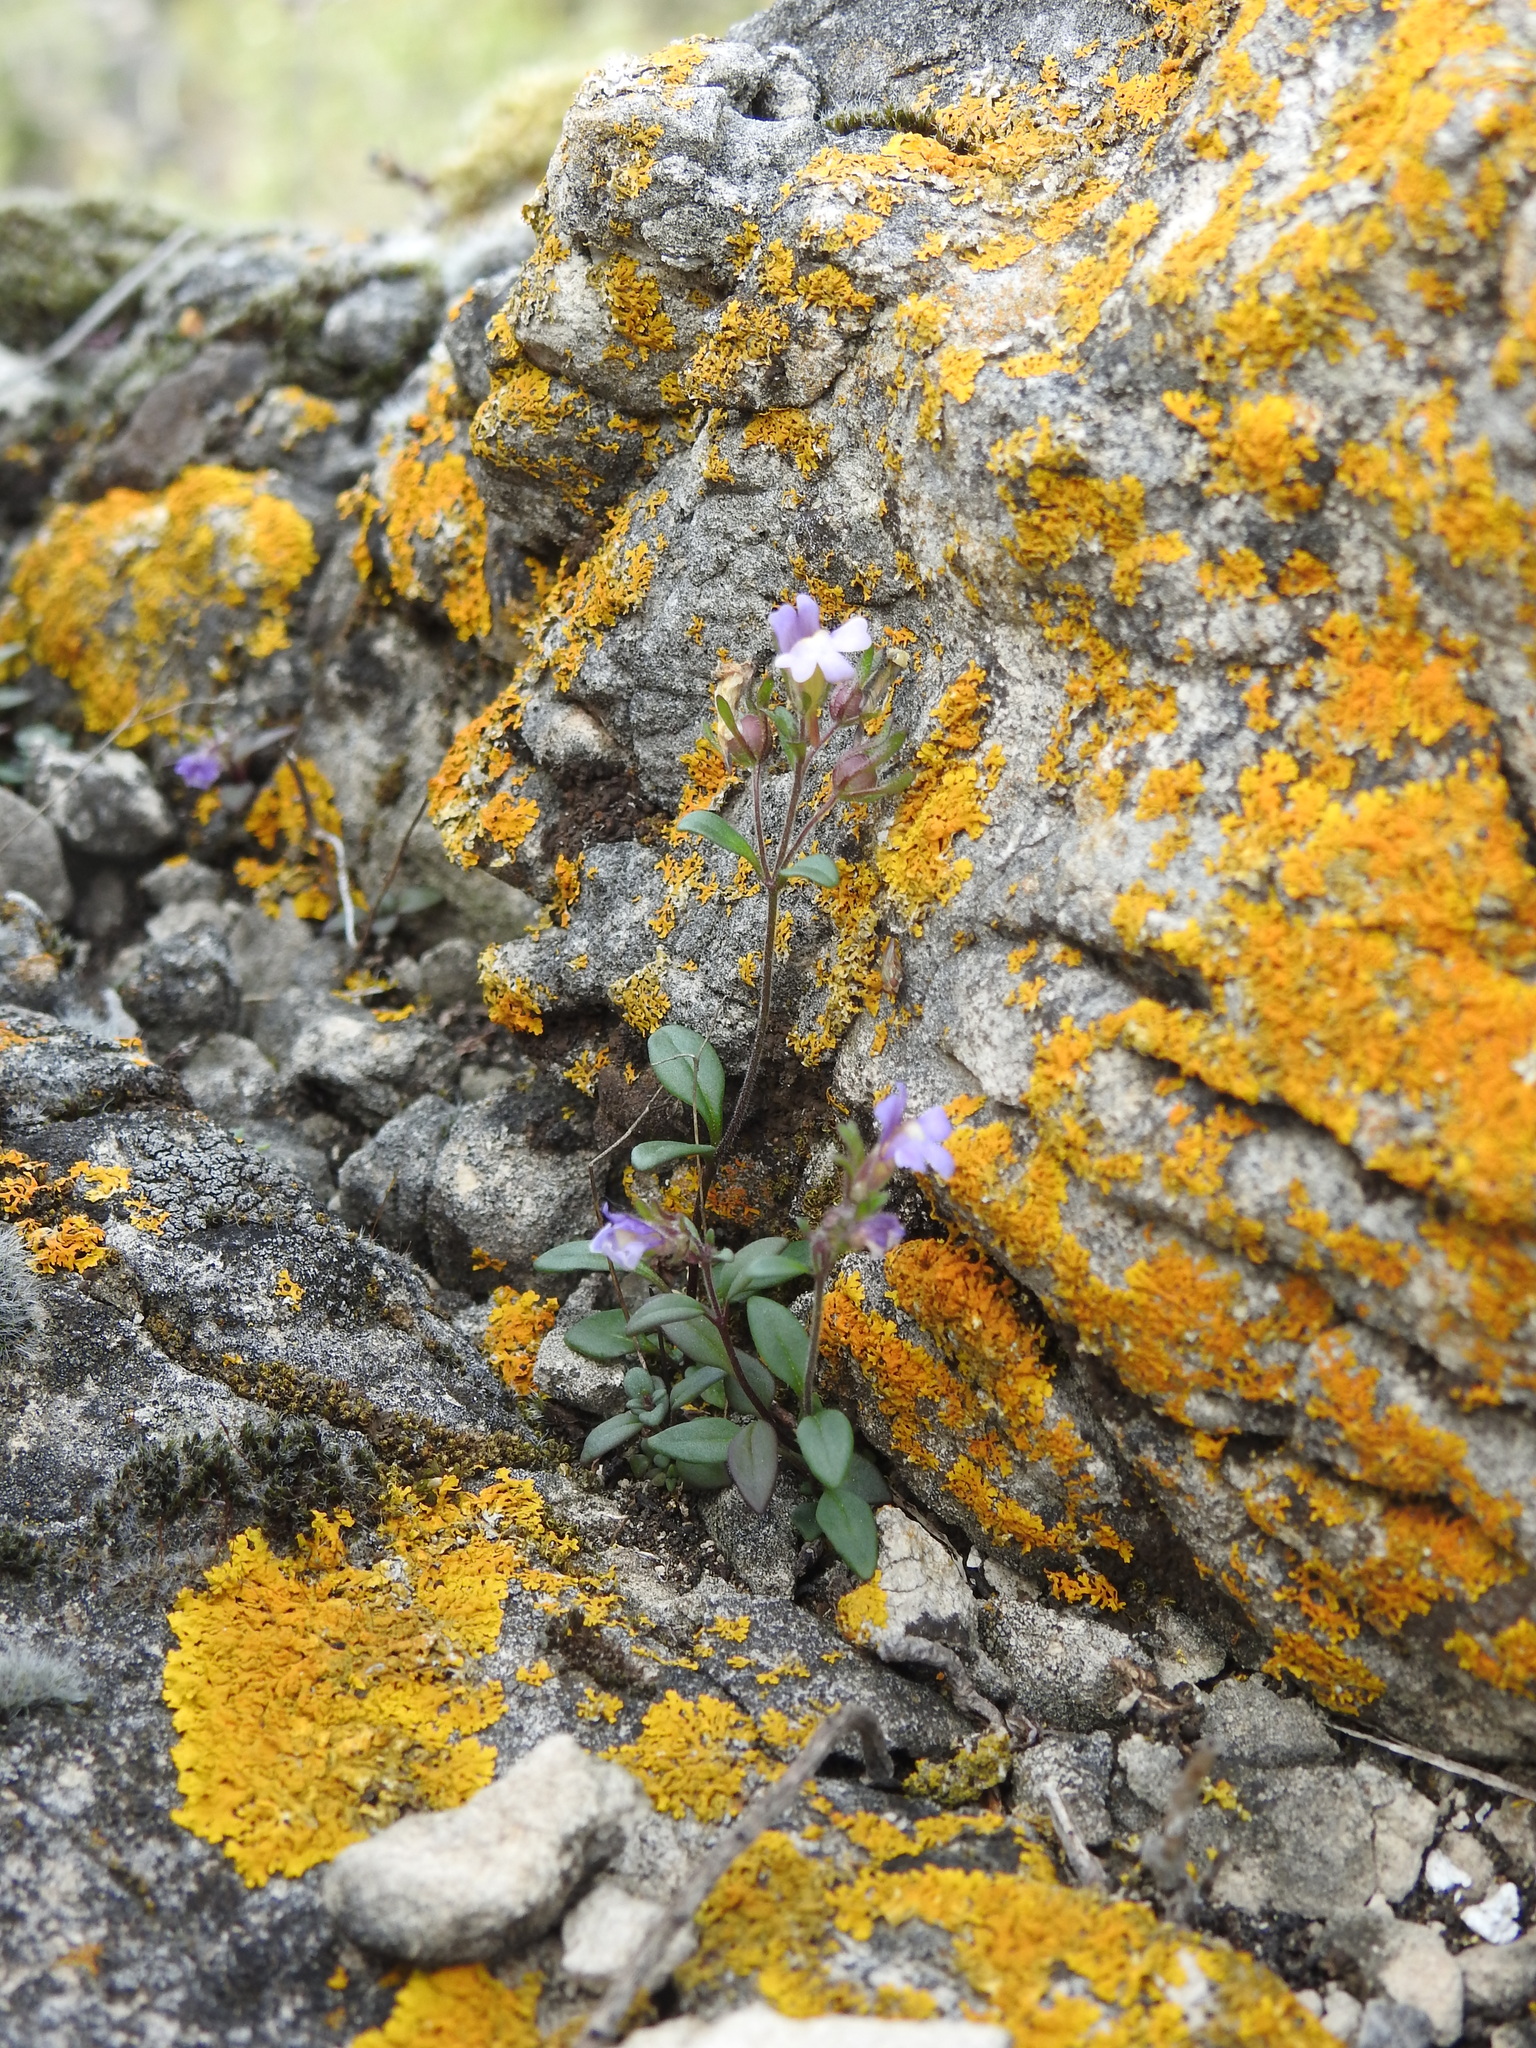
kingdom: Plantae
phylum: Tracheophyta
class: Magnoliopsida
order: Lamiales
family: Plantaginaceae
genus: Chaenorhinum
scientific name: Chaenorhinum origanifolium
